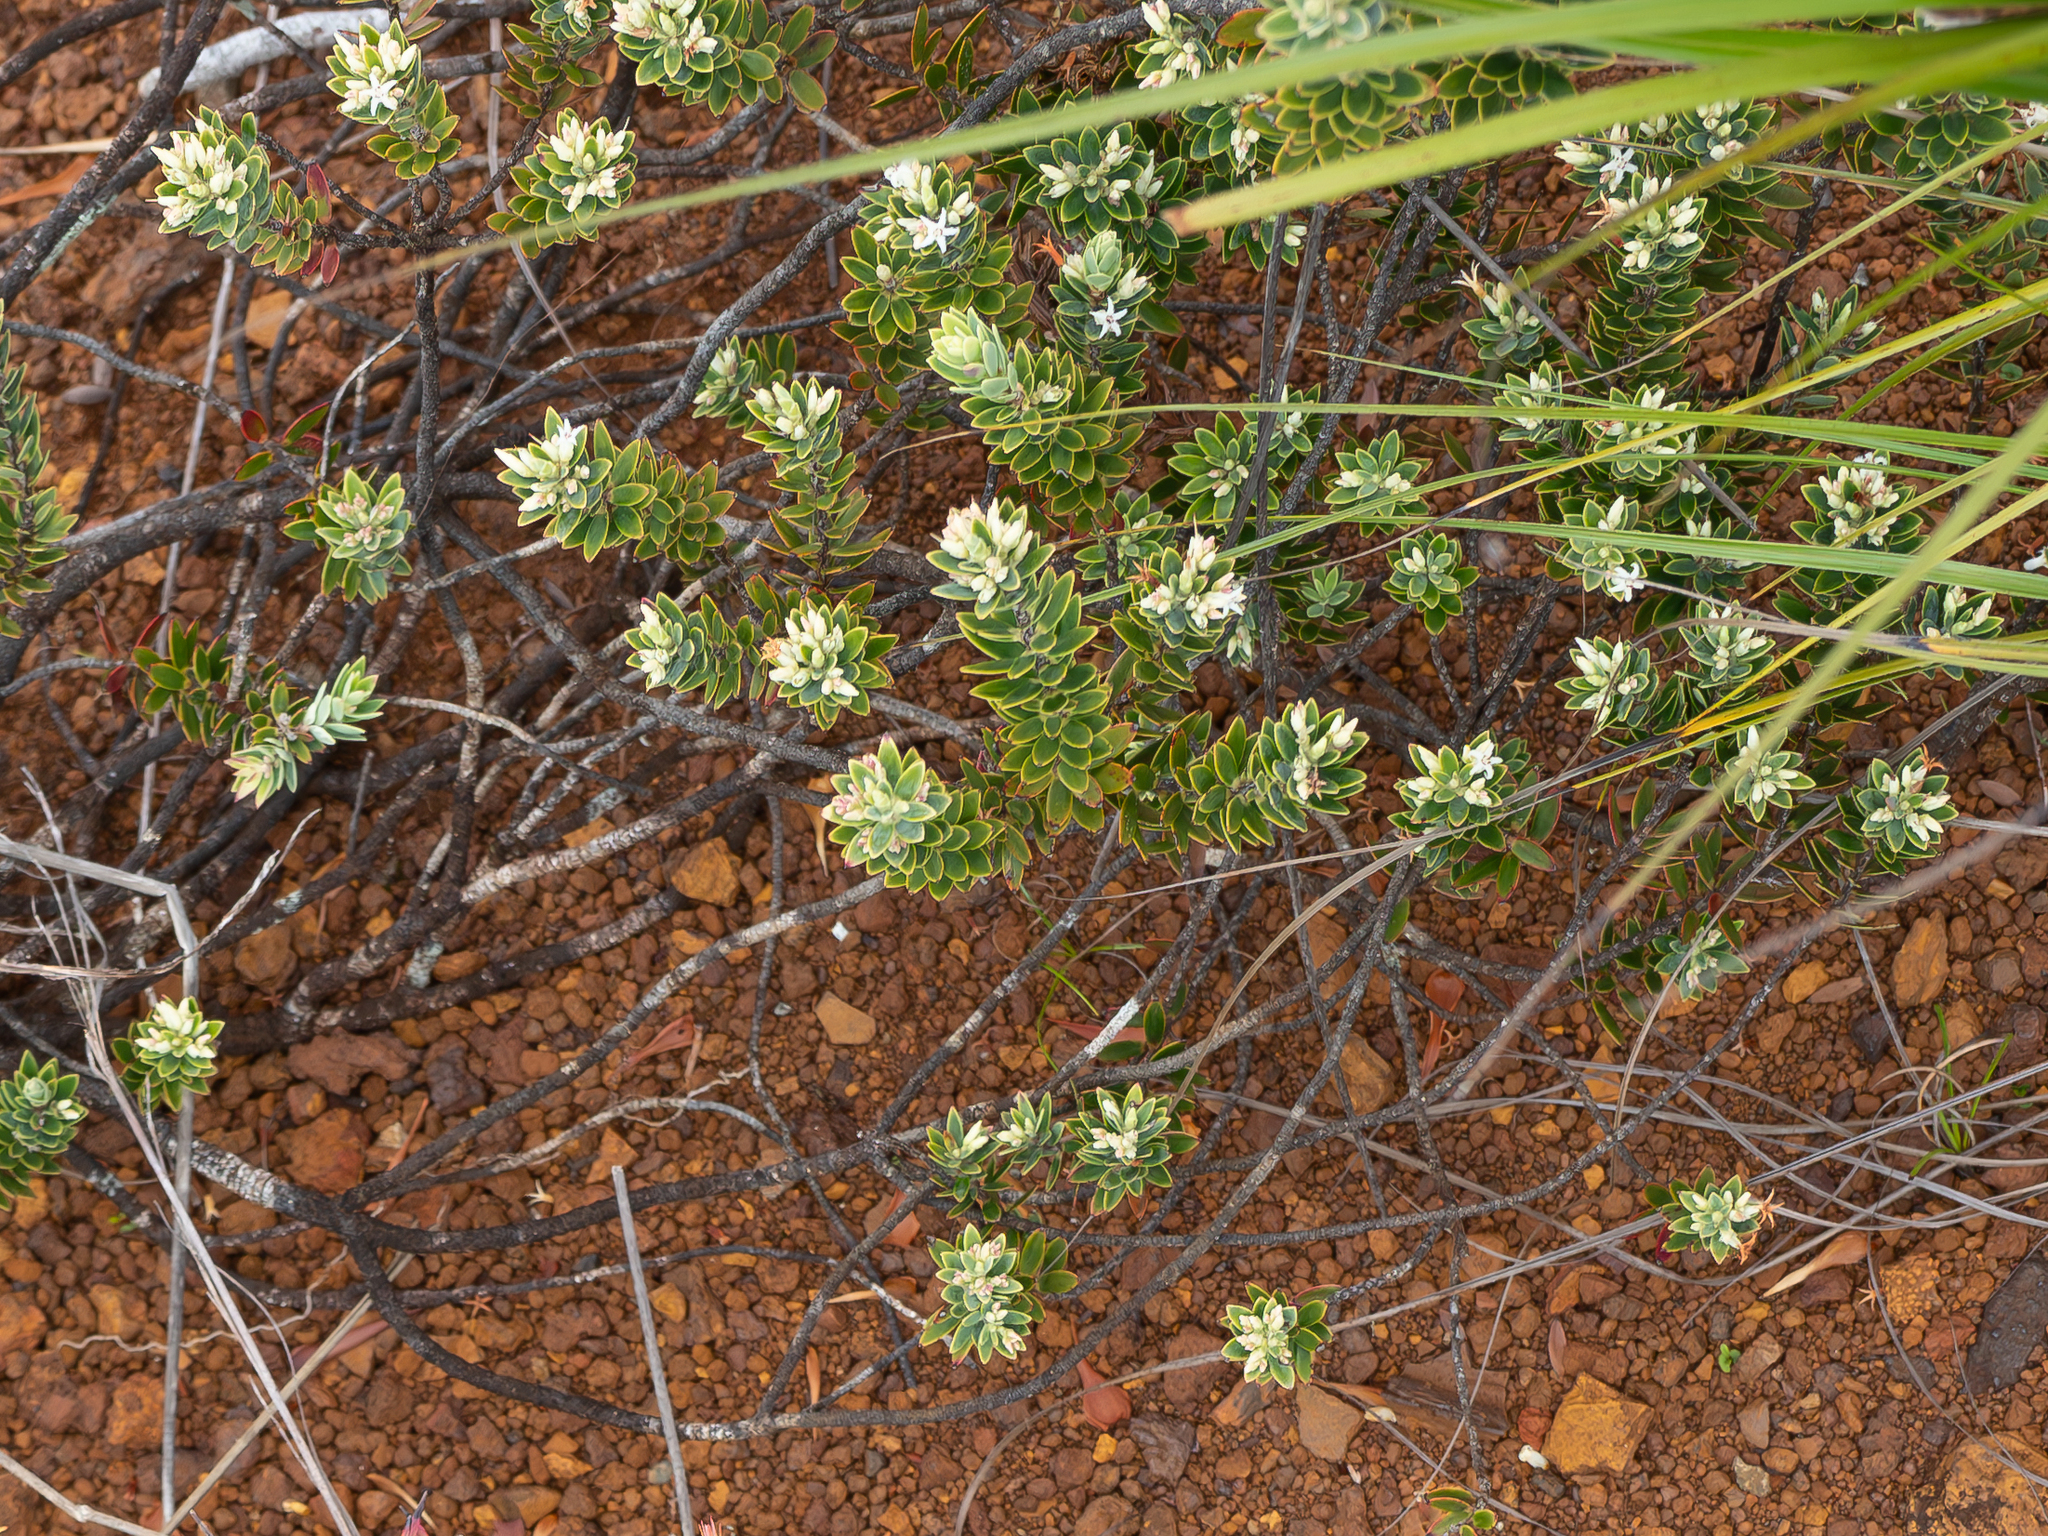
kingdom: Plantae
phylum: Tracheophyta
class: Magnoliopsida
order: Ericales
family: Ericaceae
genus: Cyathopsis
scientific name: Cyathopsis albicans
